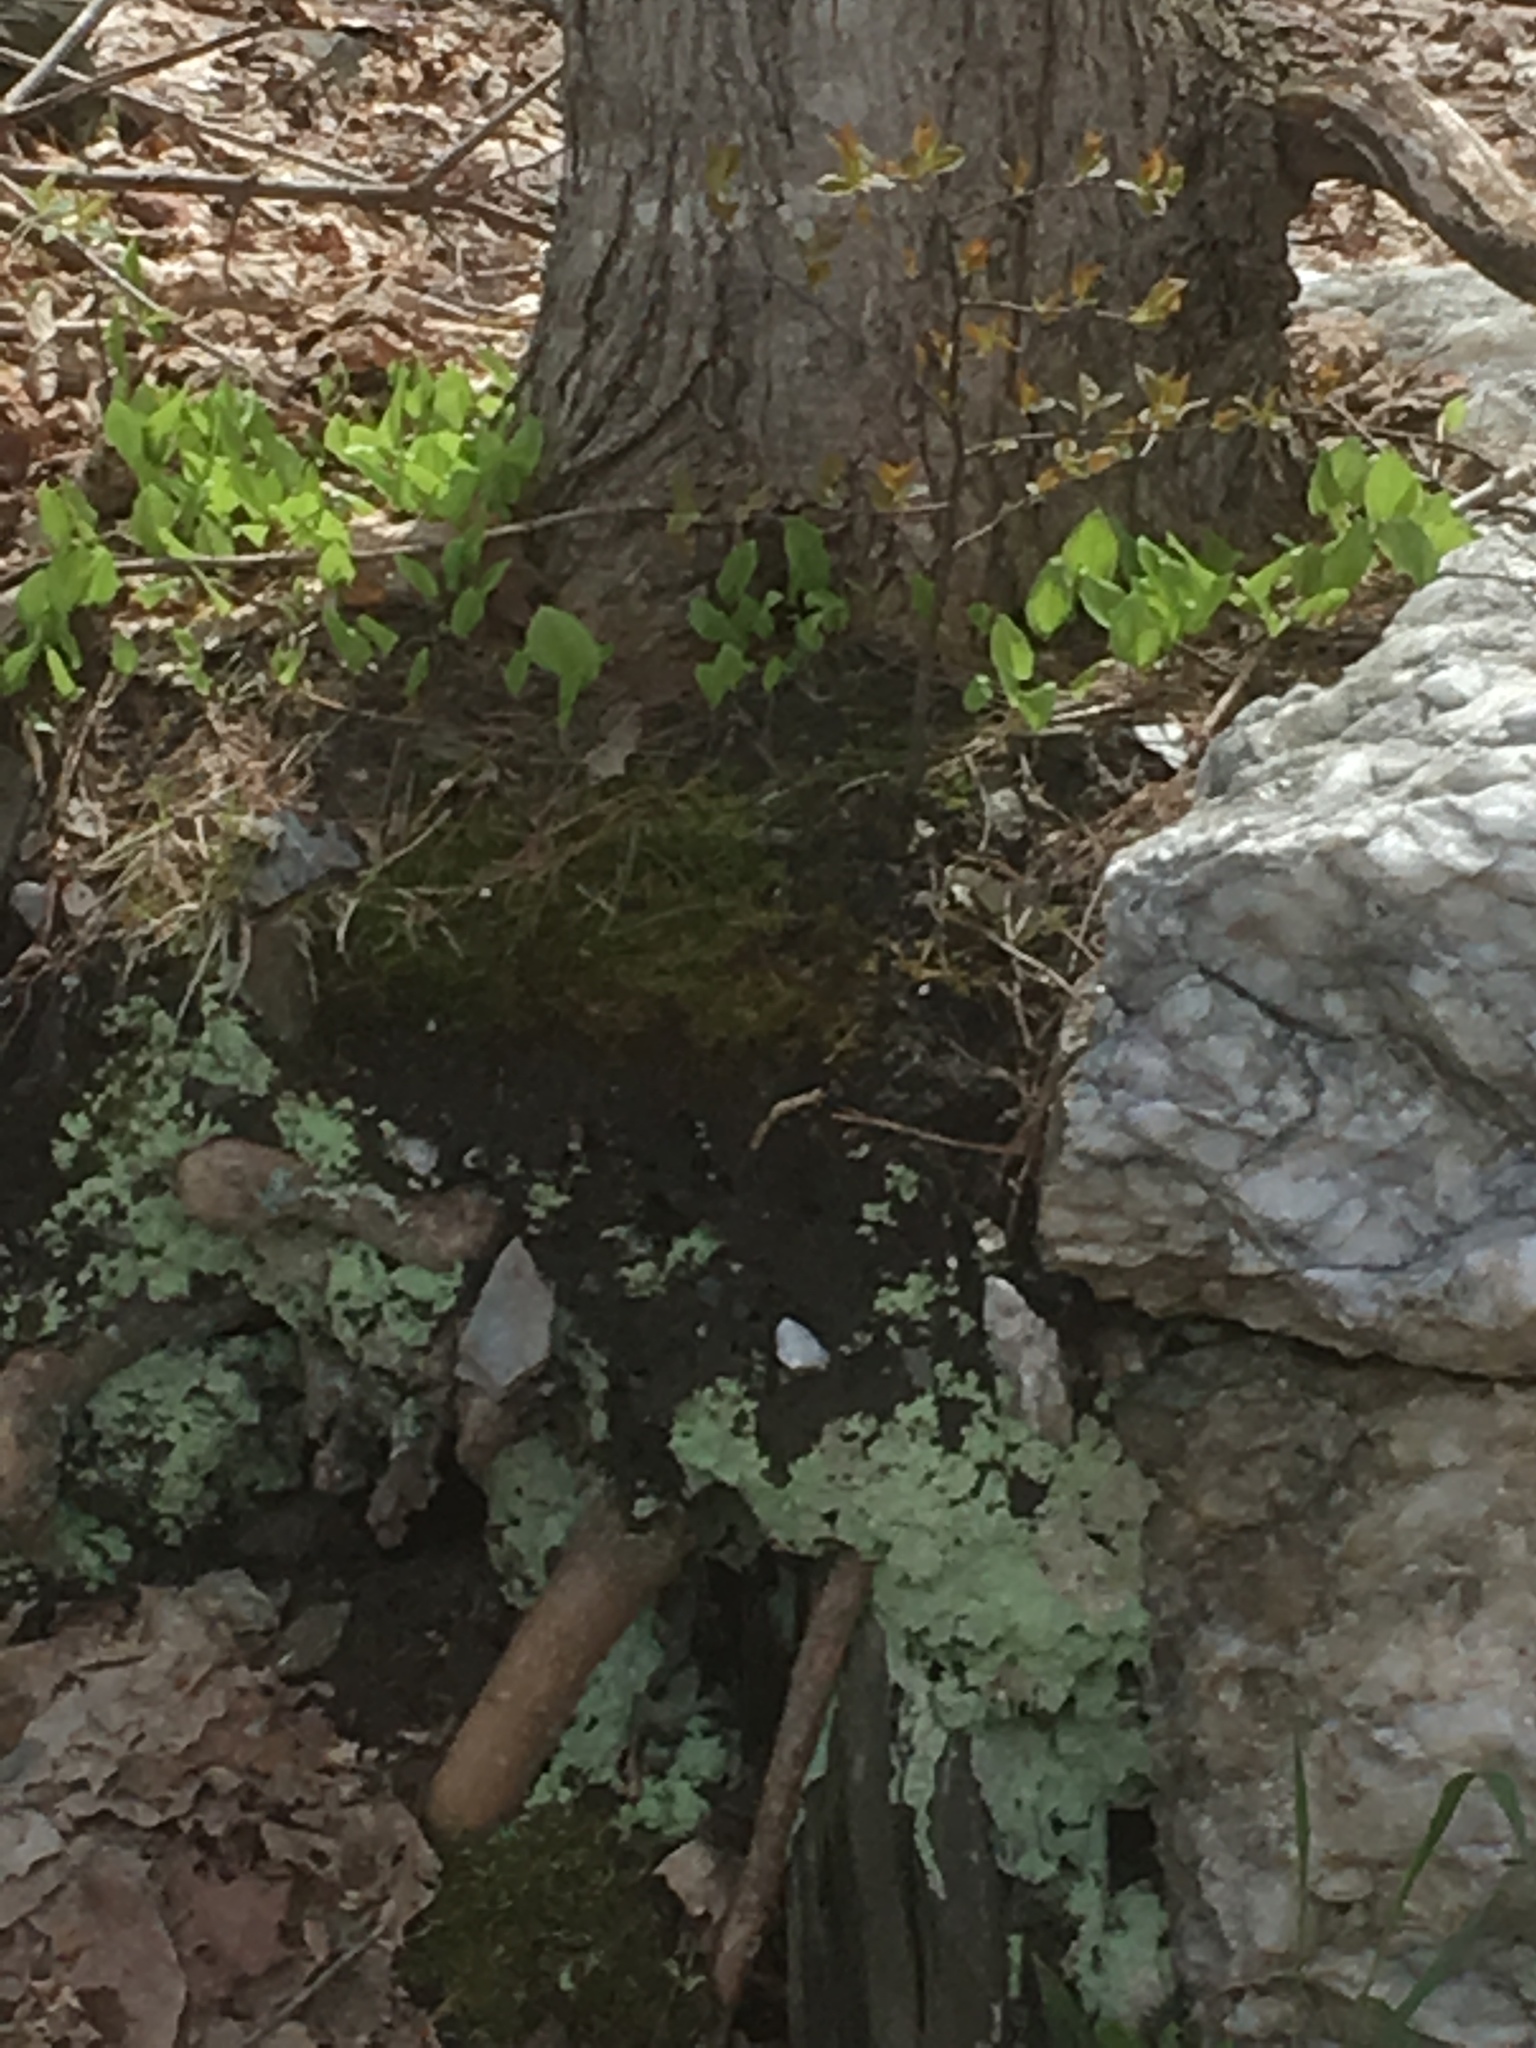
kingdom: Plantae
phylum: Tracheophyta
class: Liliopsida
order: Asparagales
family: Asparagaceae
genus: Maianthemum
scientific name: Maianthemum canadense
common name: False lily-of-the-valley
